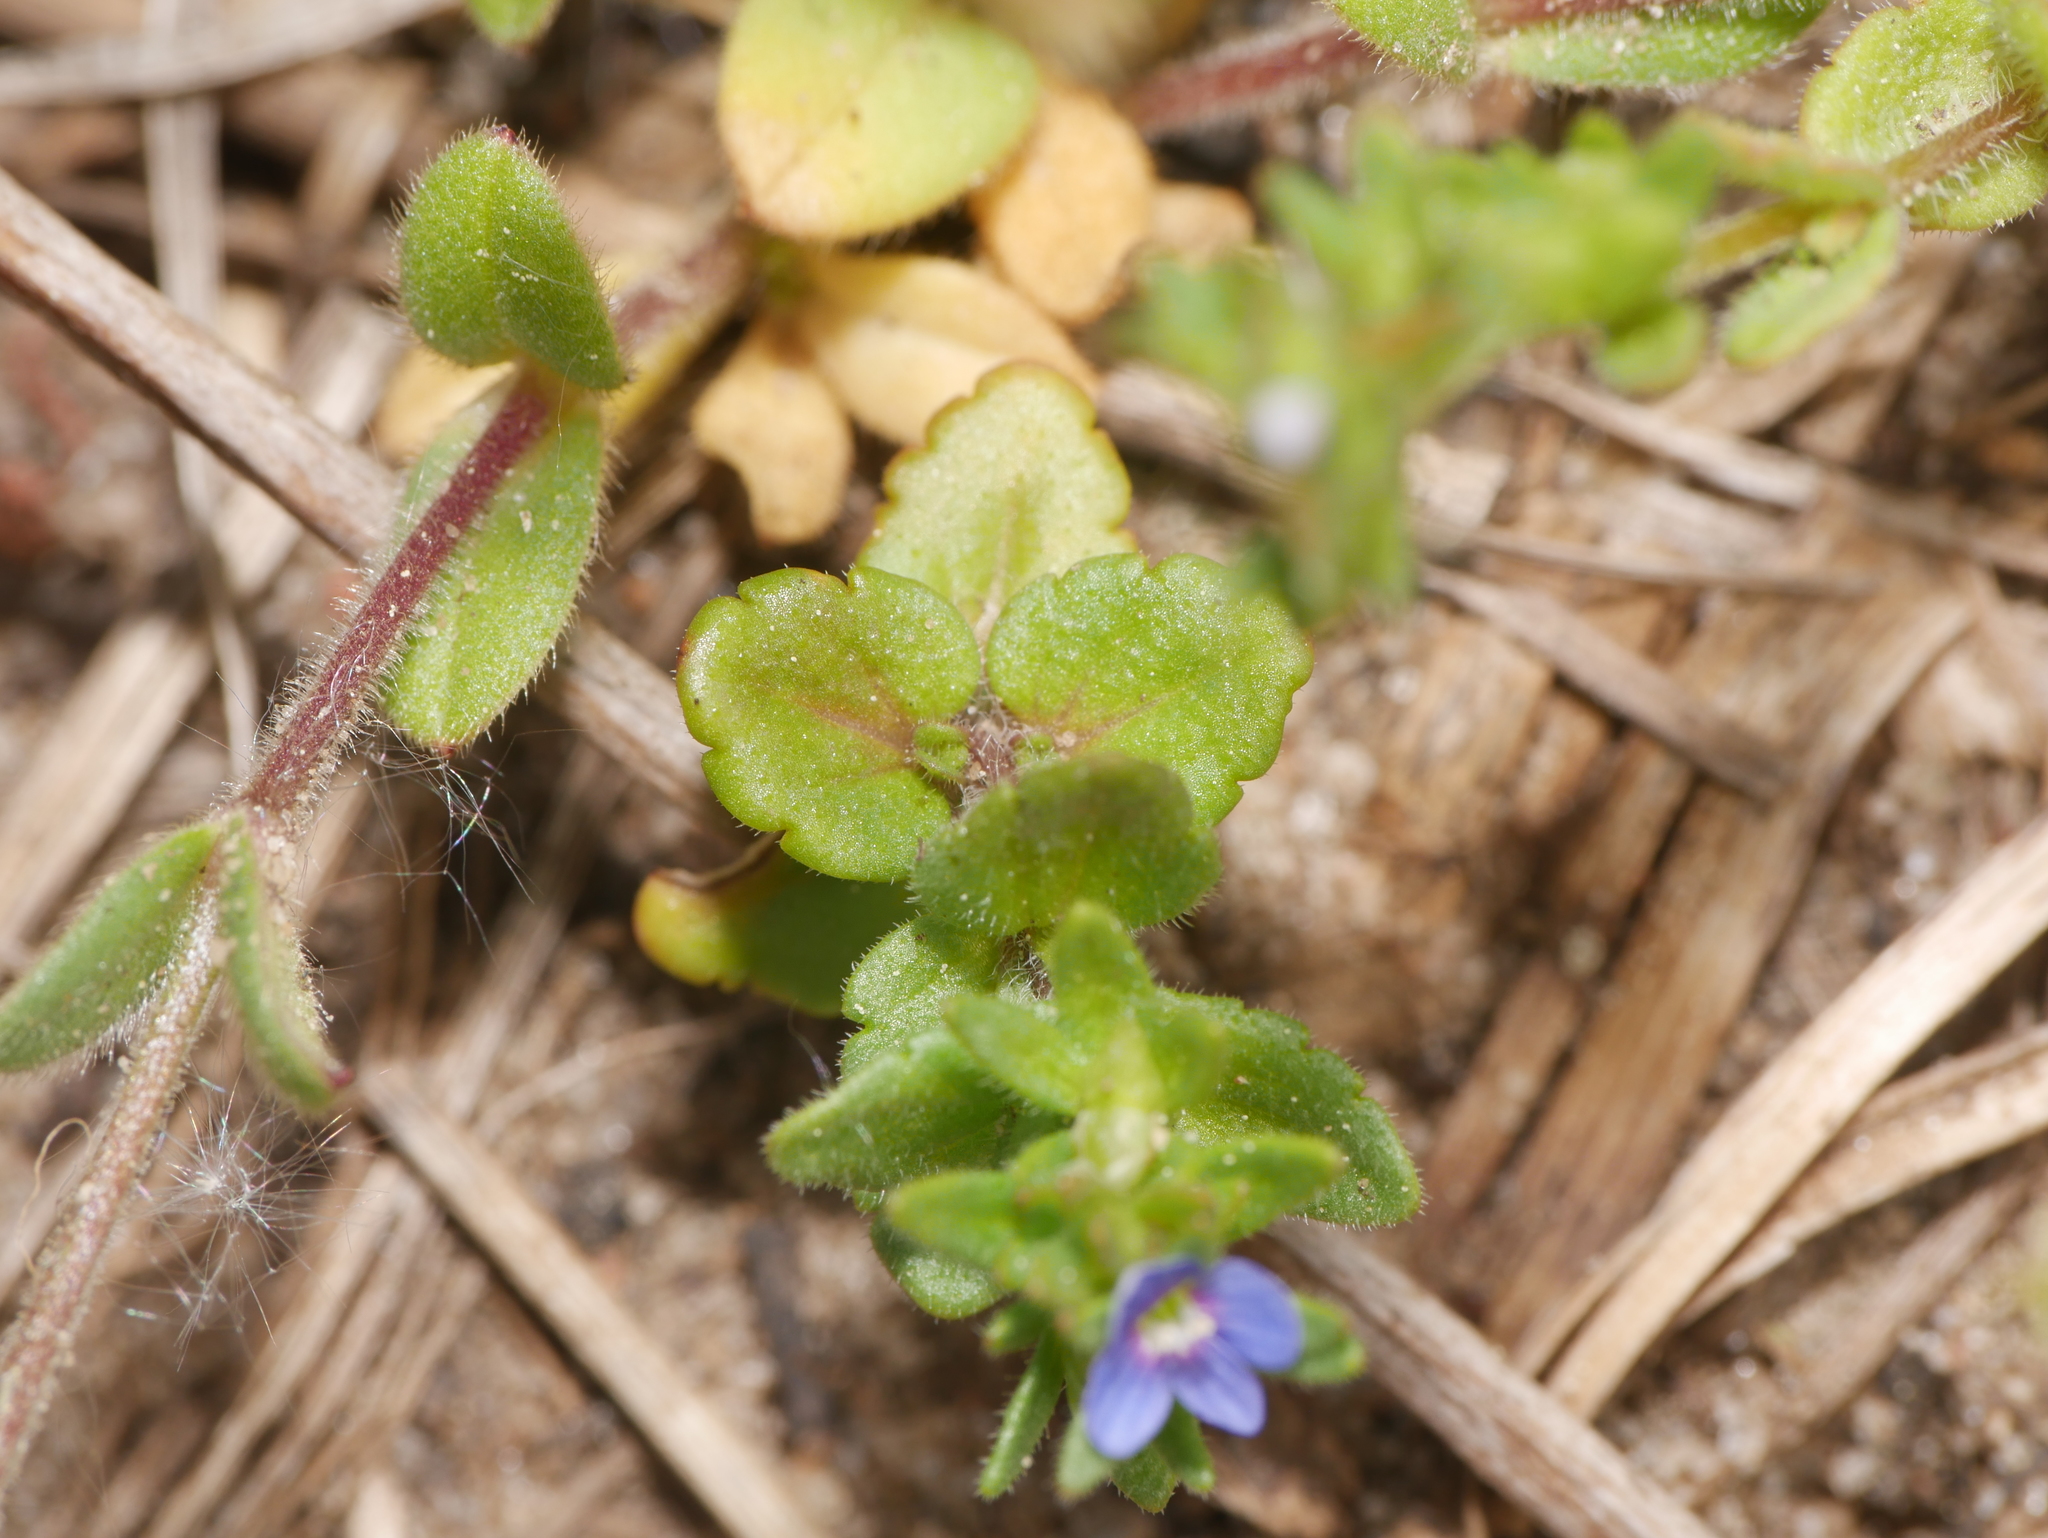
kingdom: Plantae
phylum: Tracheophyta
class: Magnoliopsida
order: Lamiales
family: Plantaginaceae
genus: Veronica
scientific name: Veronica arvensis
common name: Corn speedwell
